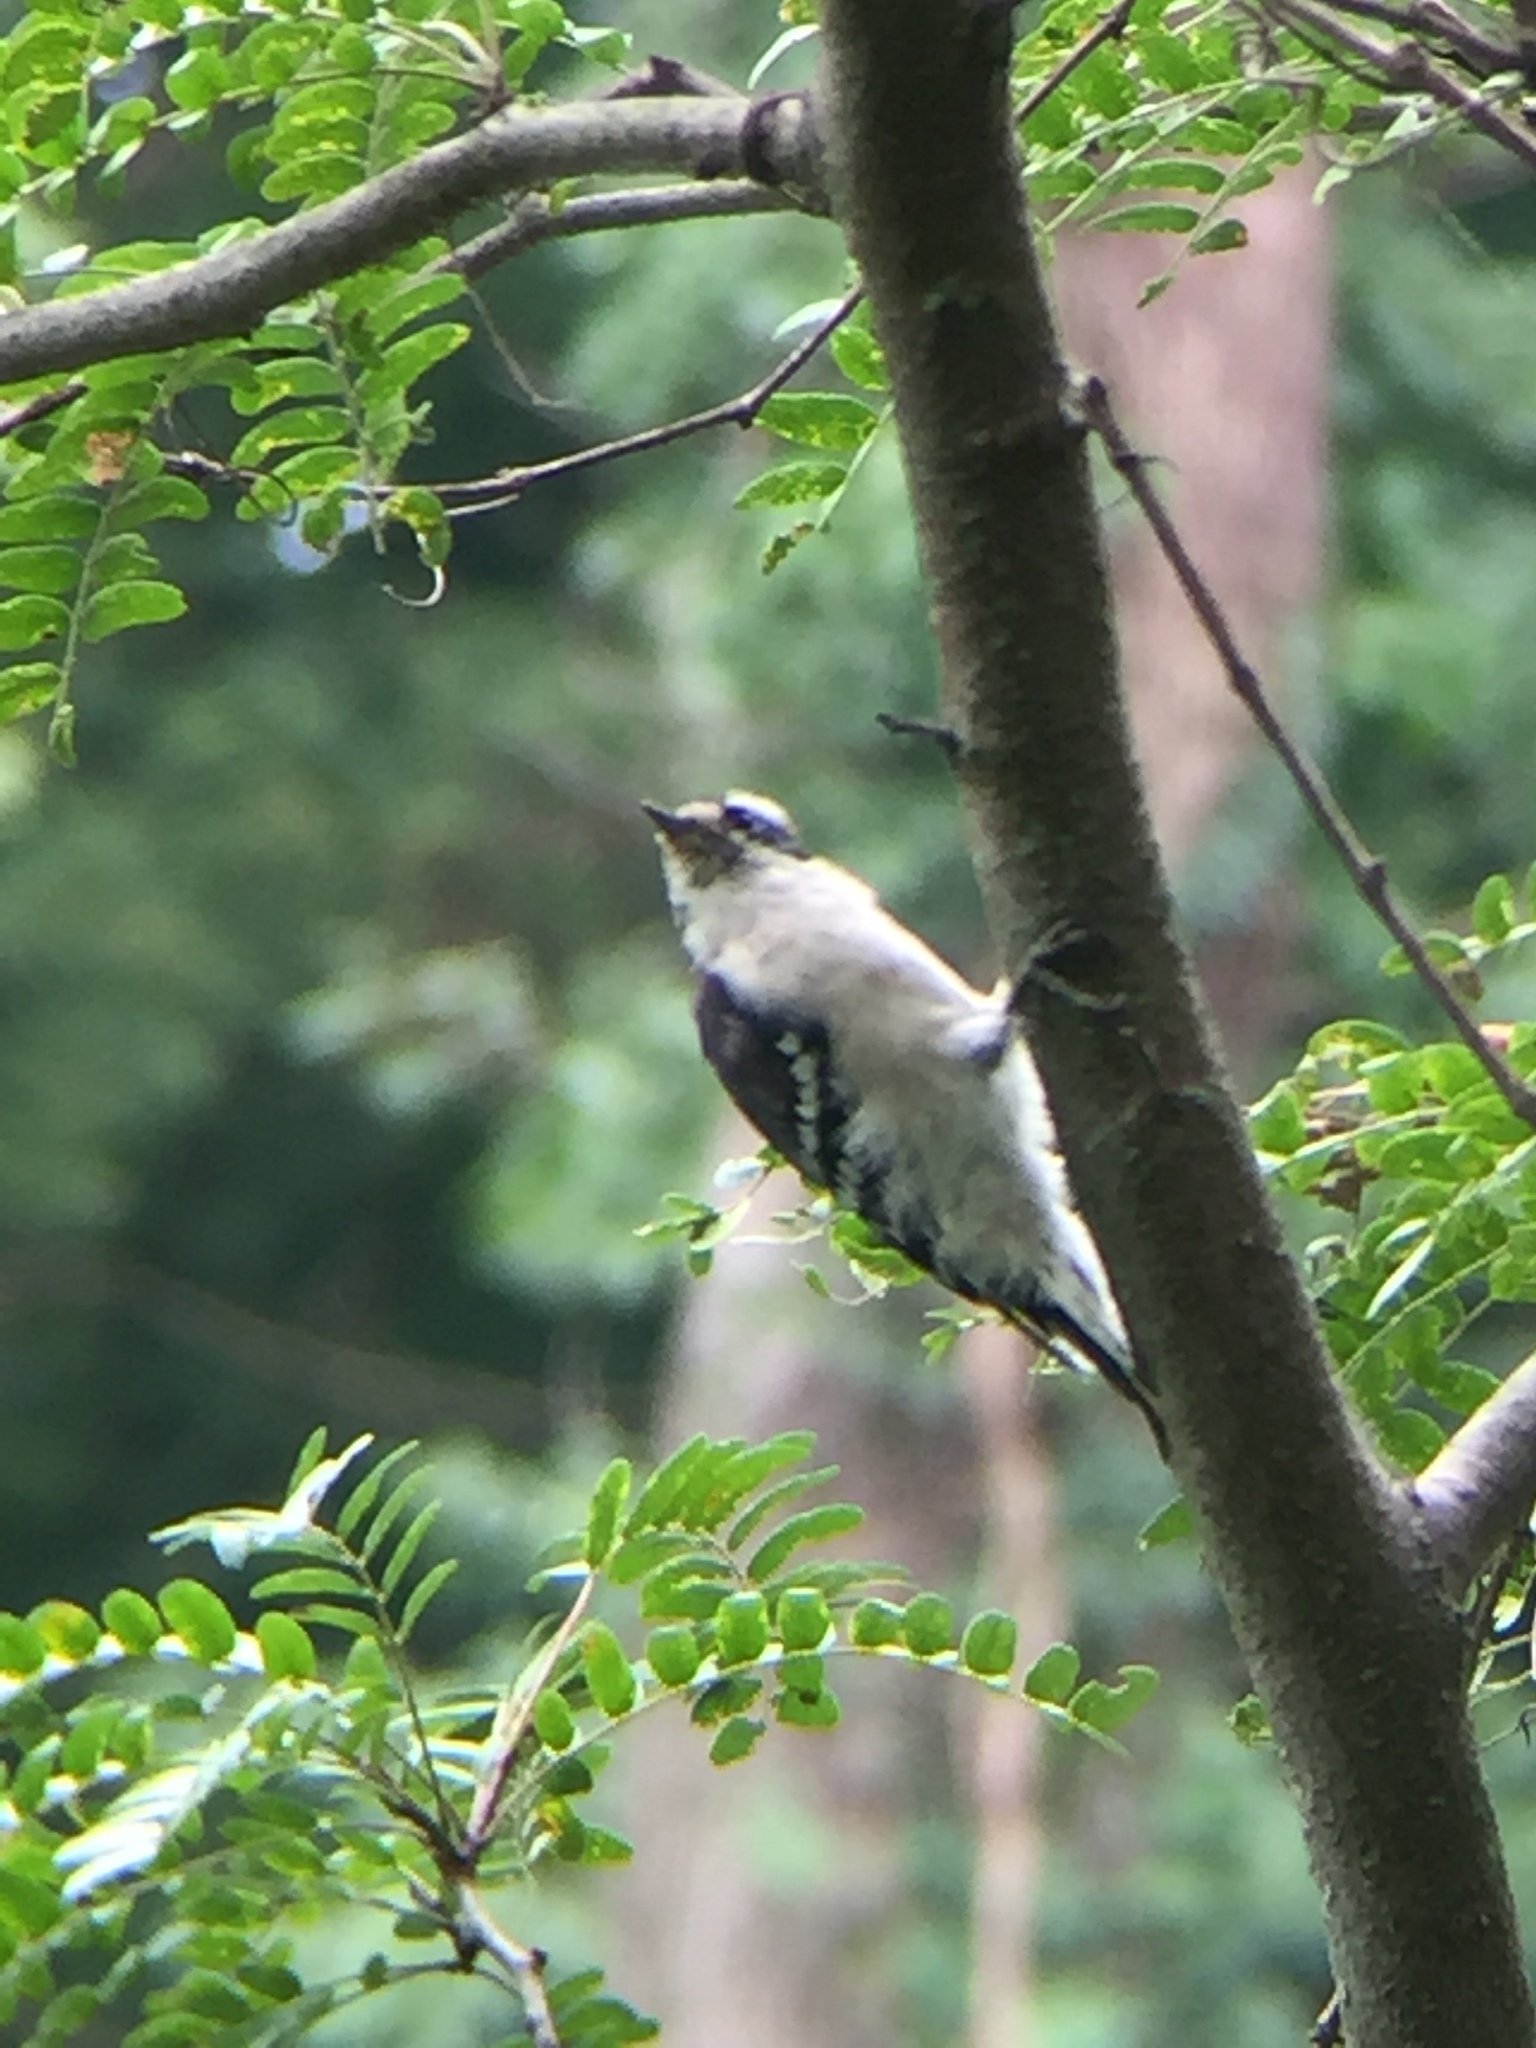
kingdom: Animalia
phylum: Chordata
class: Aves
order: Piciformes
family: Picidae
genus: Dryobates
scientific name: Dryobates pubescens
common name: Downy woodpecker
